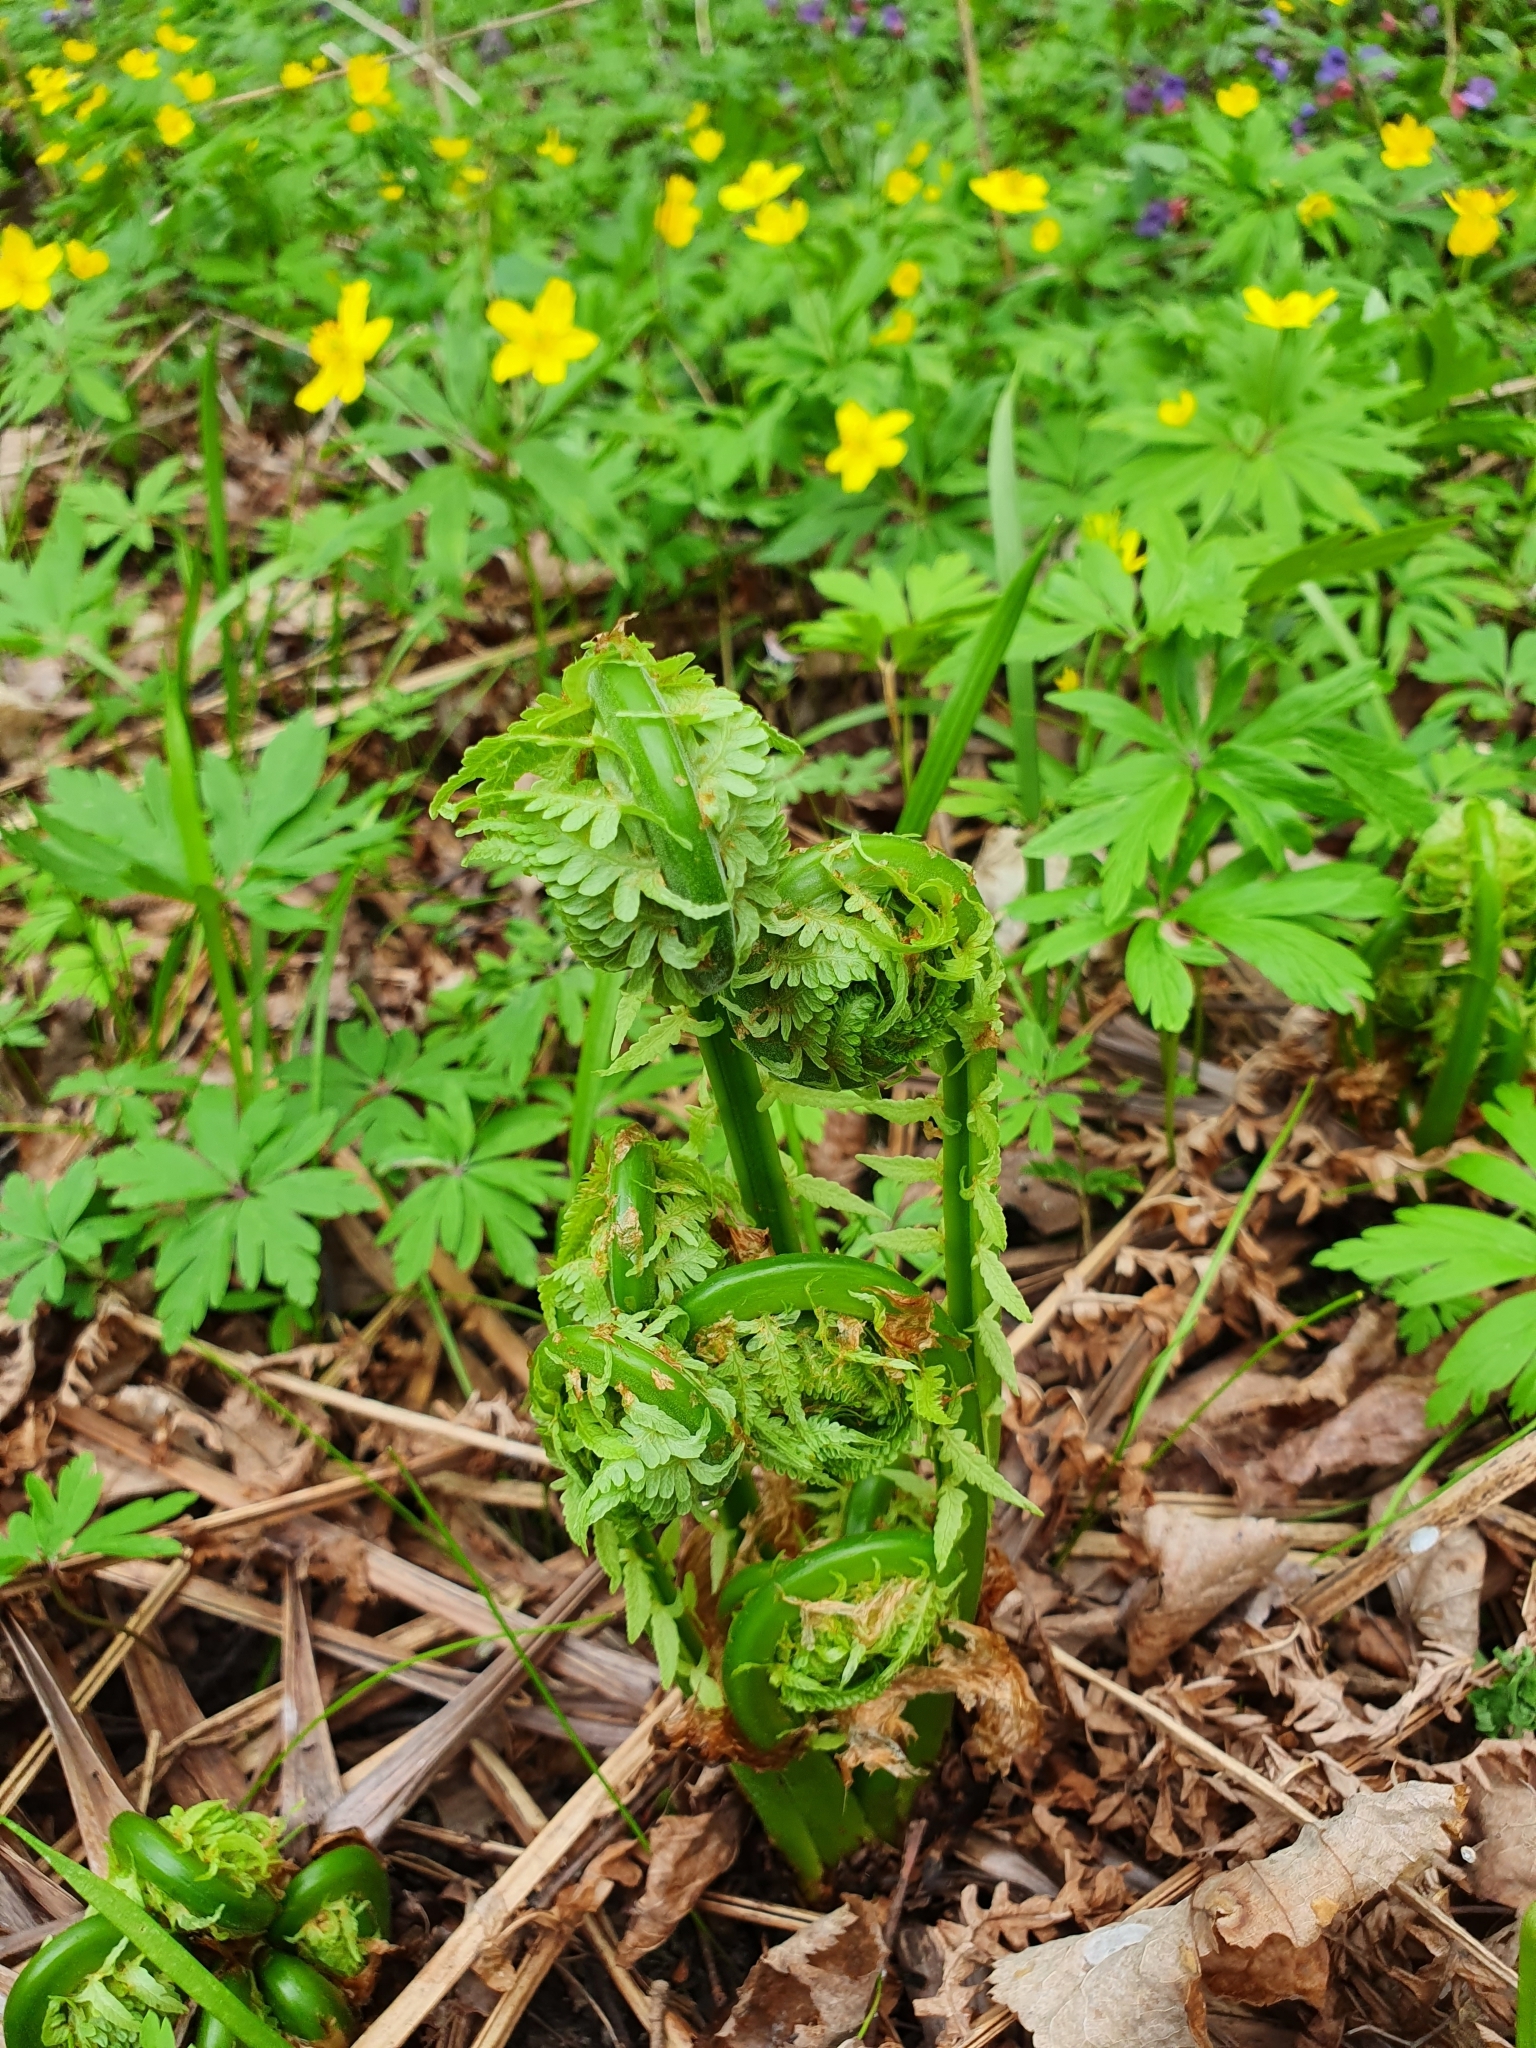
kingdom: Plantae
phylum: Tracheophyta
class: Polypodiopsida
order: Polypodiales
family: Onocleaceae
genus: Matteuccia
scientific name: Matteuccia struthiopteris
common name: Ostrich fern
